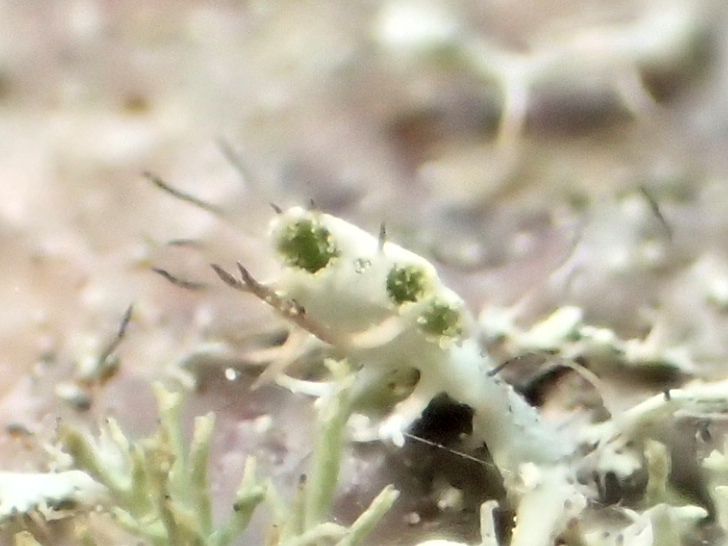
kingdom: Fungi
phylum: Ascomycota
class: Lecanoromycetes
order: Caliciales
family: Physciaceae
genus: Physcia
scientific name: Physcia adscendens
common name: Hooded rosette lichen
